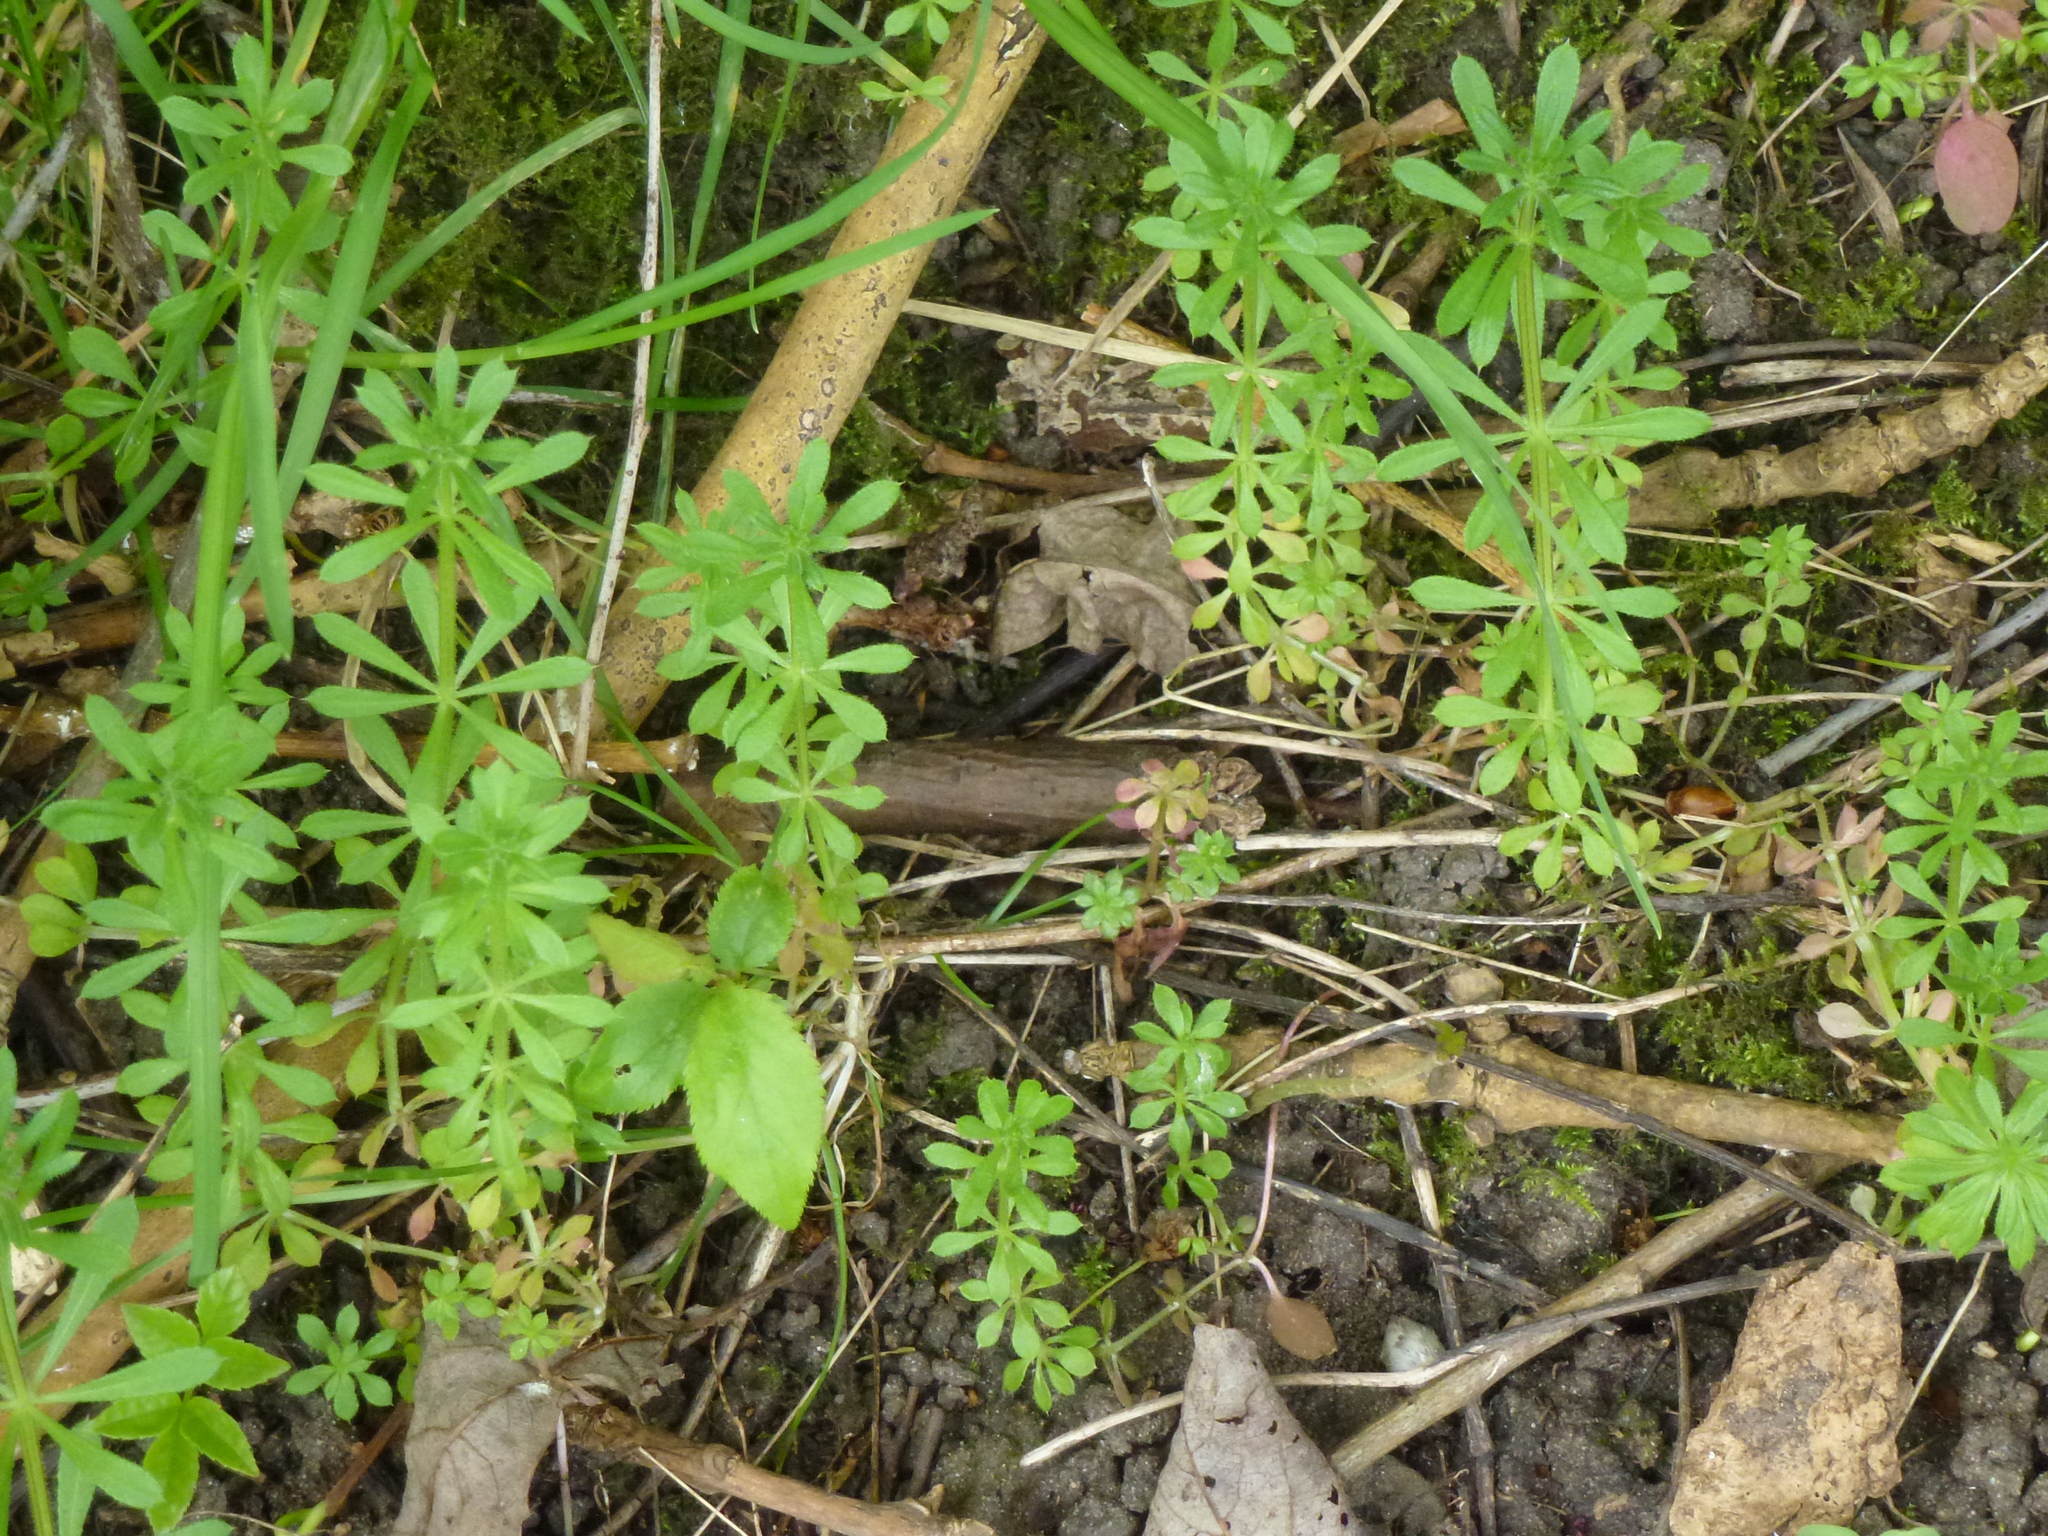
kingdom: Plantae
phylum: Tracheophyta
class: Magnoliopsida
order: Gentianales
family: Rubiaceae
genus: Galium
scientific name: Galium aparine
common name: Cleavers
